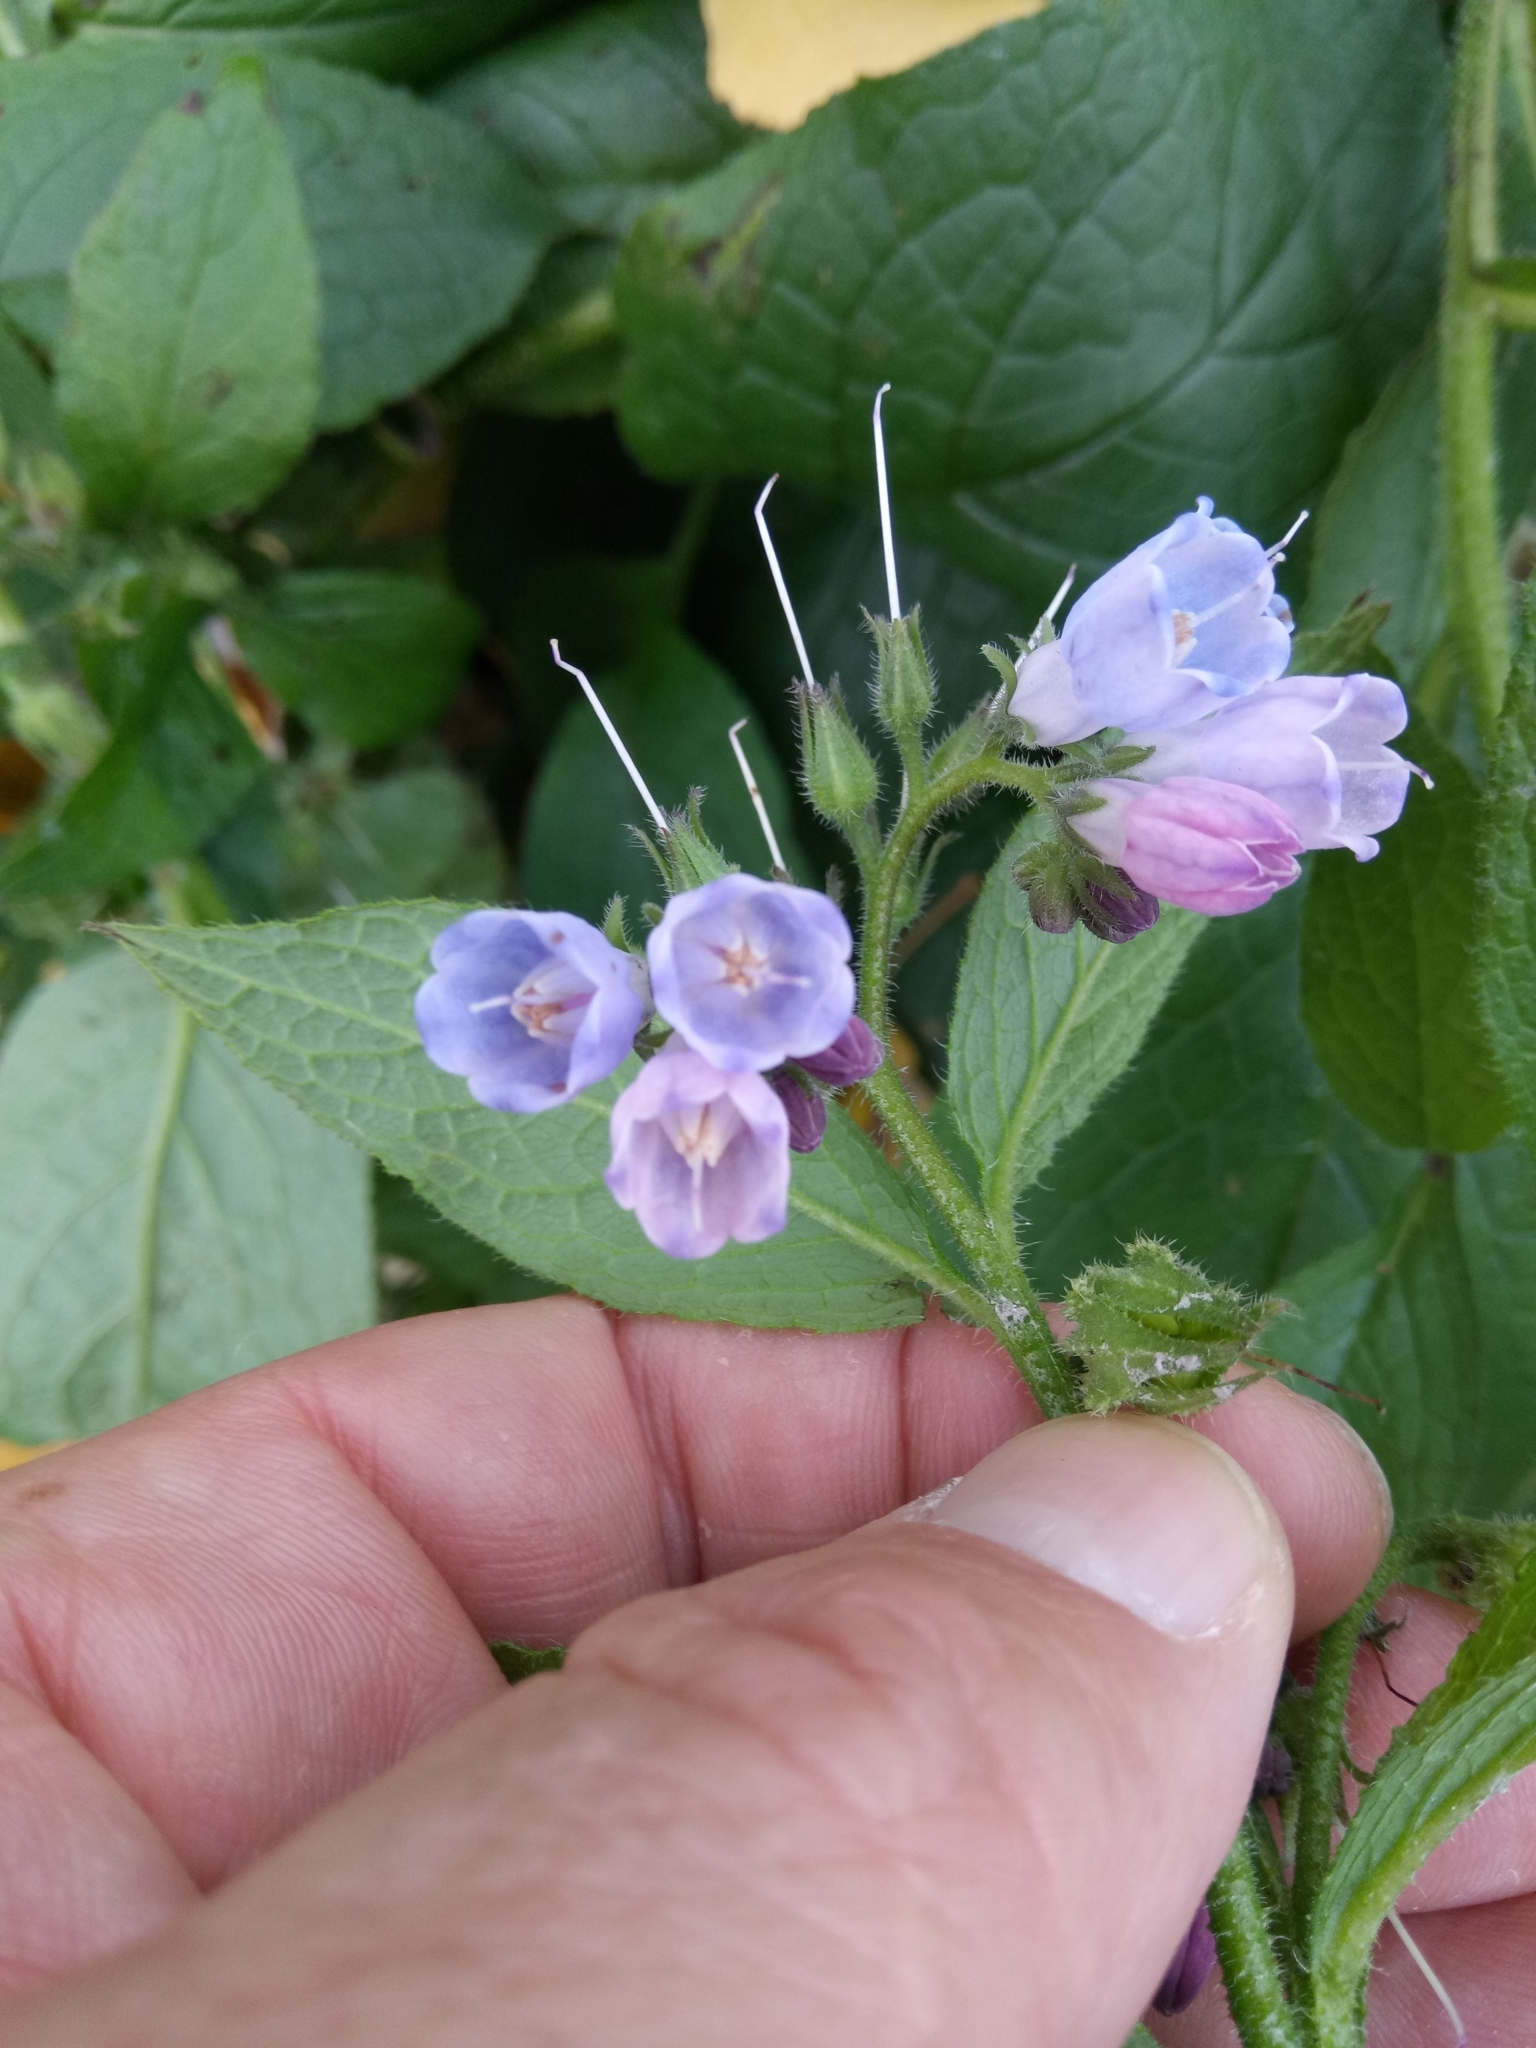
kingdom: Plantae
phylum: Tracheophyta
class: Magnoliopsida
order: Boraginales
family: Boraginaceae
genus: Symphytum
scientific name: Symphytum uplandicum
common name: Russian comfrey
